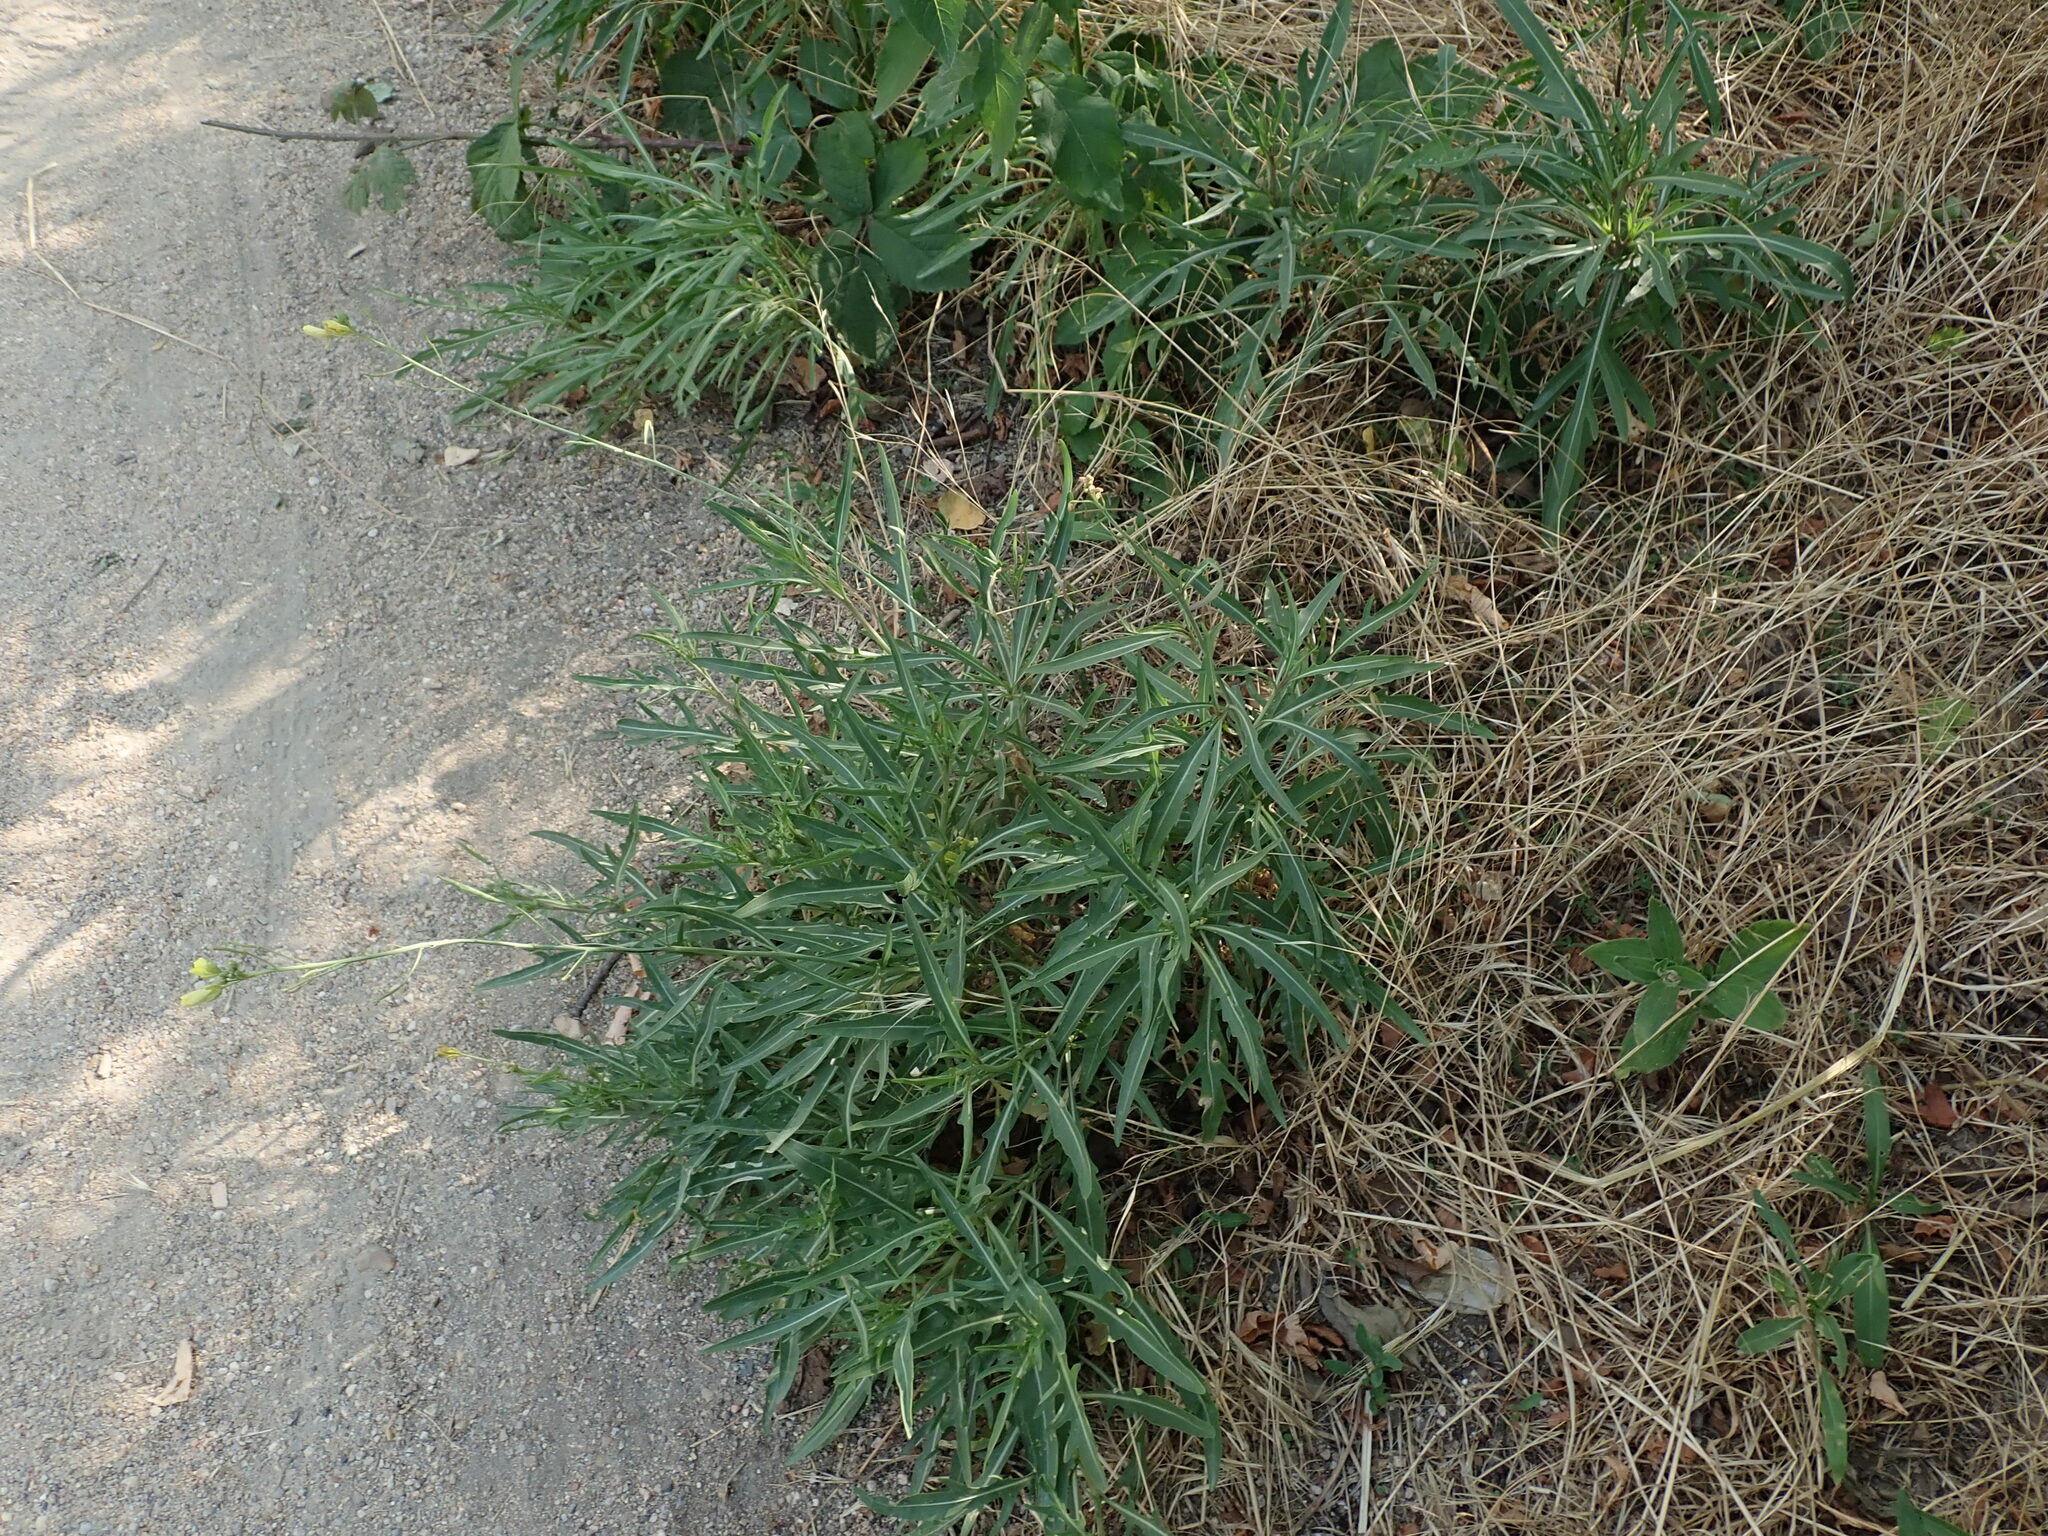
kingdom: Plantae
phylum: Tracheophyta
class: Magnoliopsida
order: Brassicales
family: Brassicaceae
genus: Diplotaxis
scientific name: Diplotaxis tenuifolia
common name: Perennial wall-rocket
